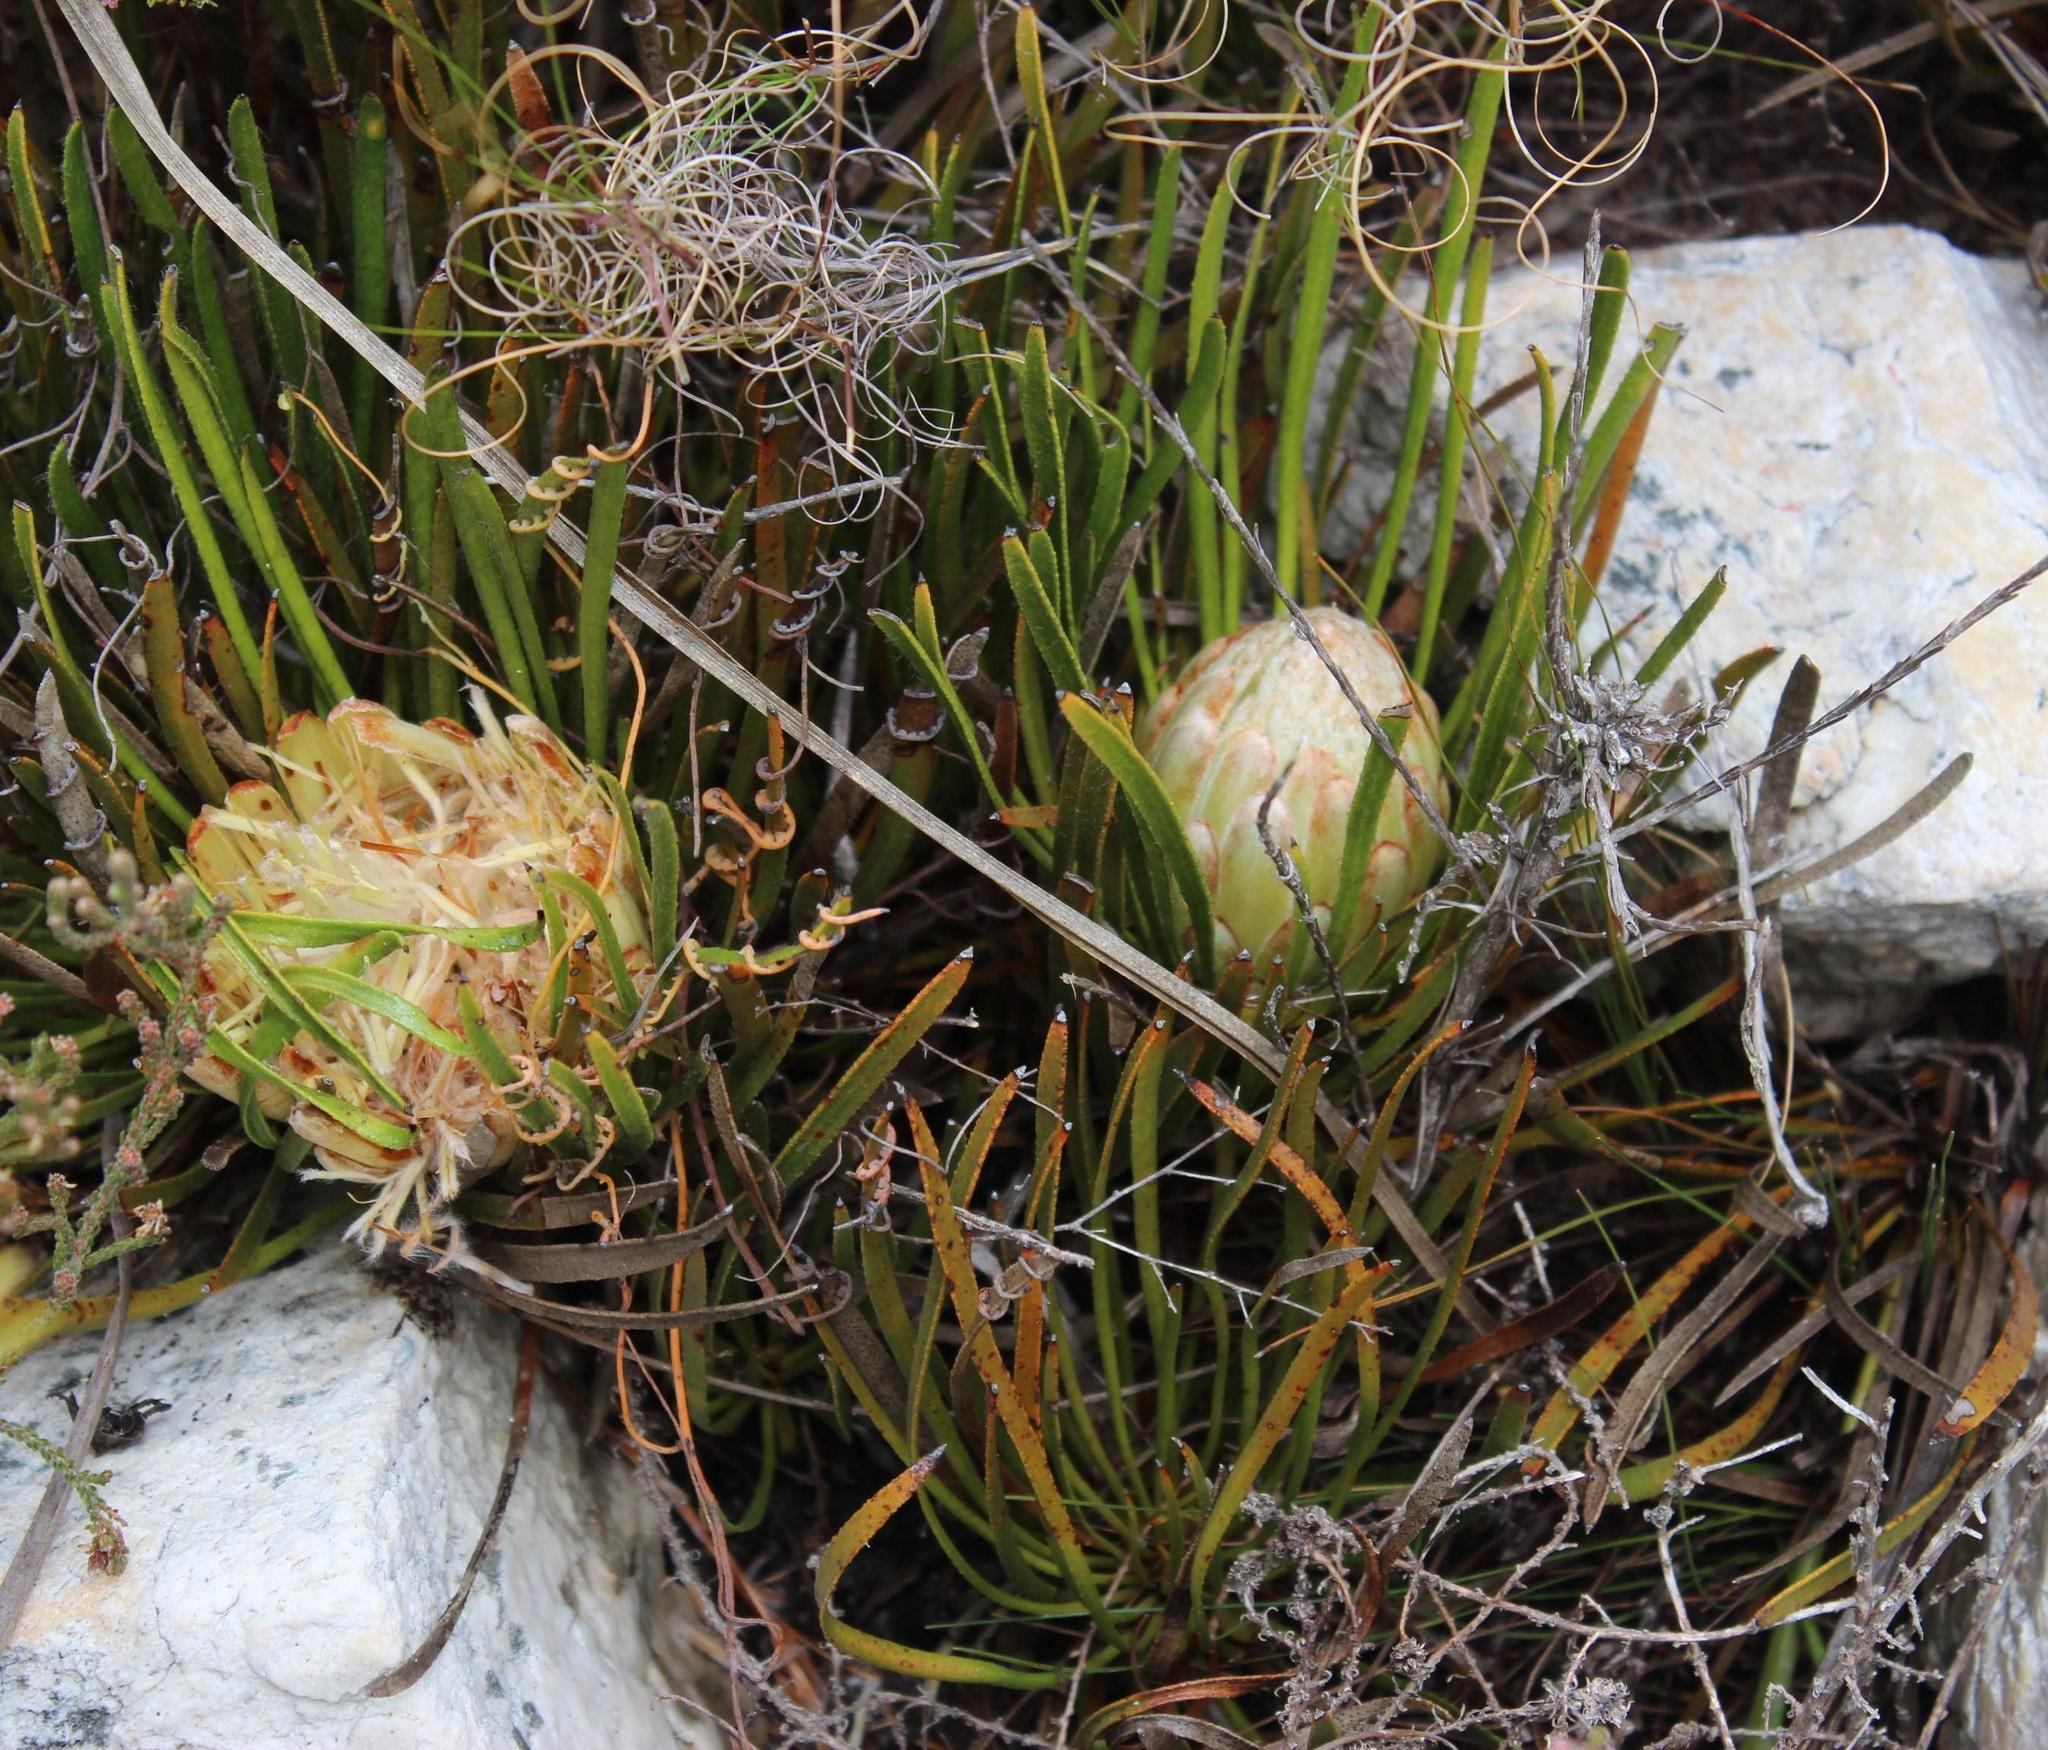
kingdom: Plantae
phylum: Tracheophyta
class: Magnoliopsida
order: Proteales
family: Proteaceae
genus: Protea
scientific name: Protea aspera
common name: Rough-leaf sugarbush
